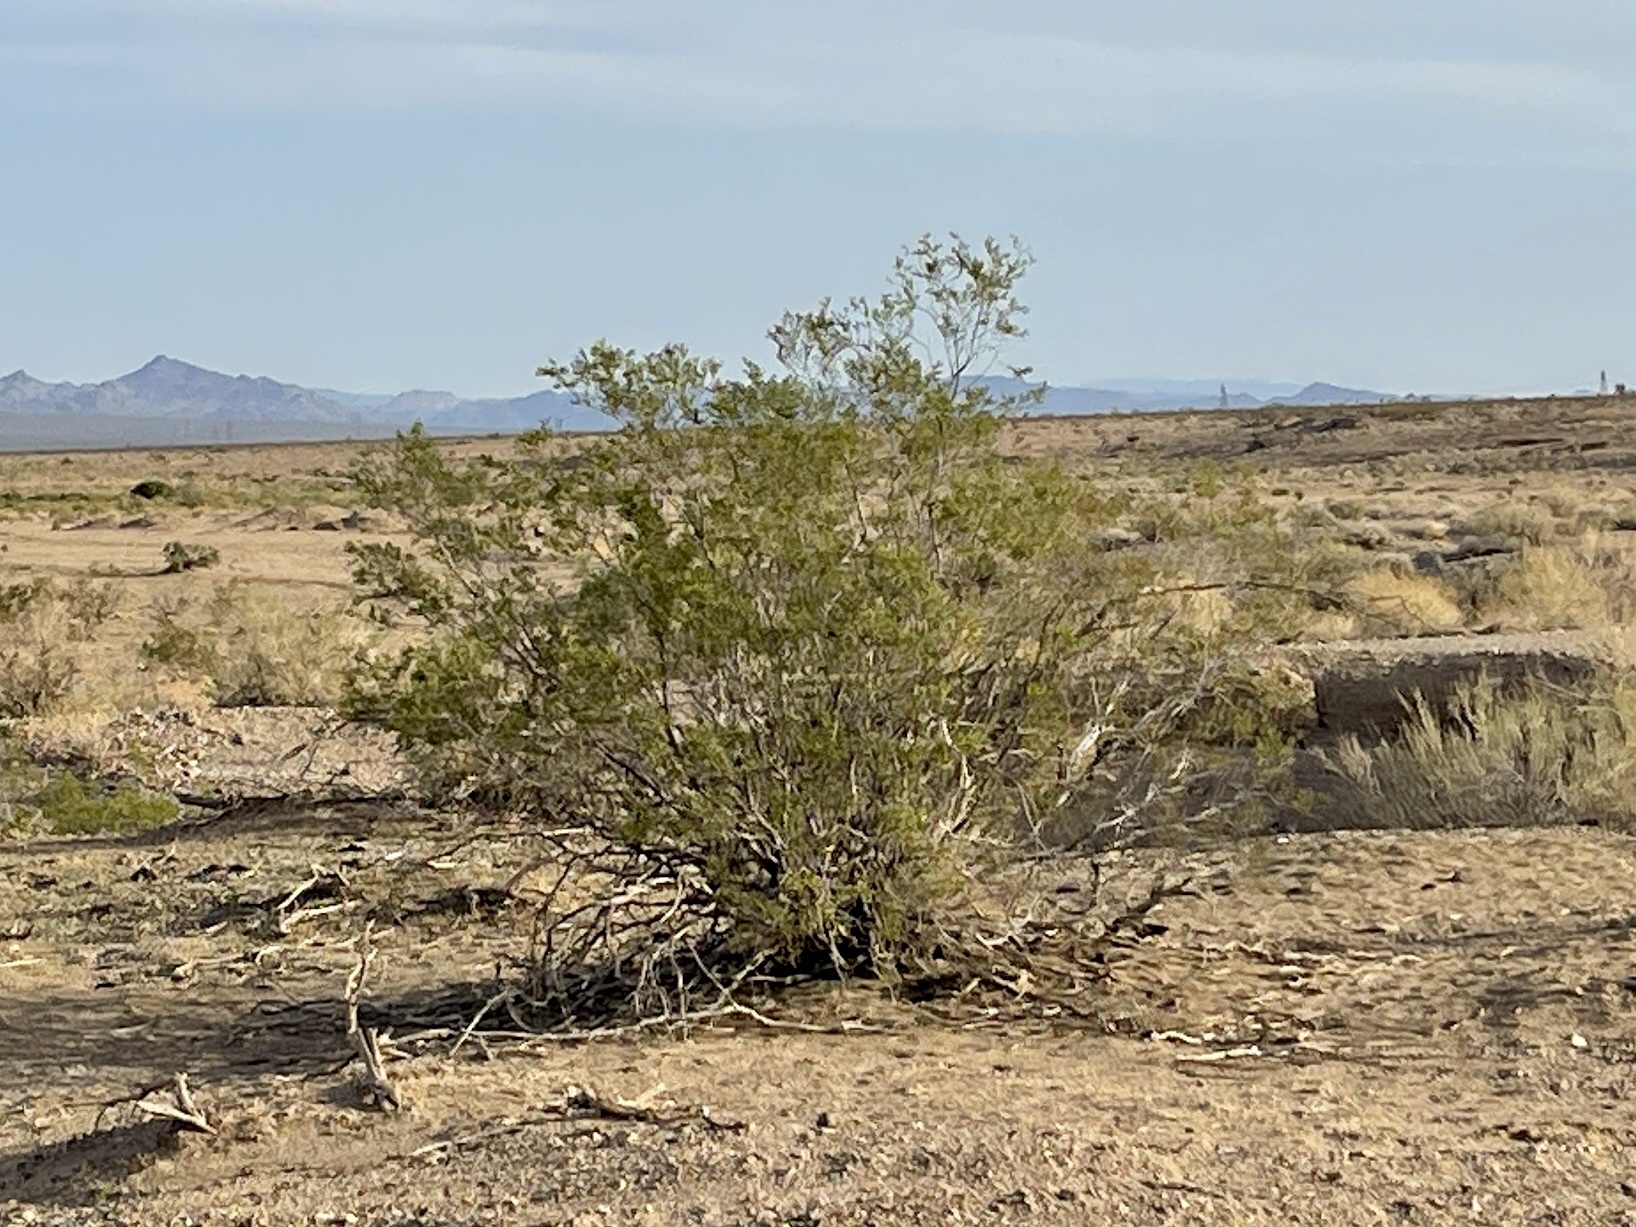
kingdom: Plantae
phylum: Tracheophyta
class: Magnoliopsida
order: Zygophyllales
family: Zygophyllaceae
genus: Larrea
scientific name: Larrea tridentata
